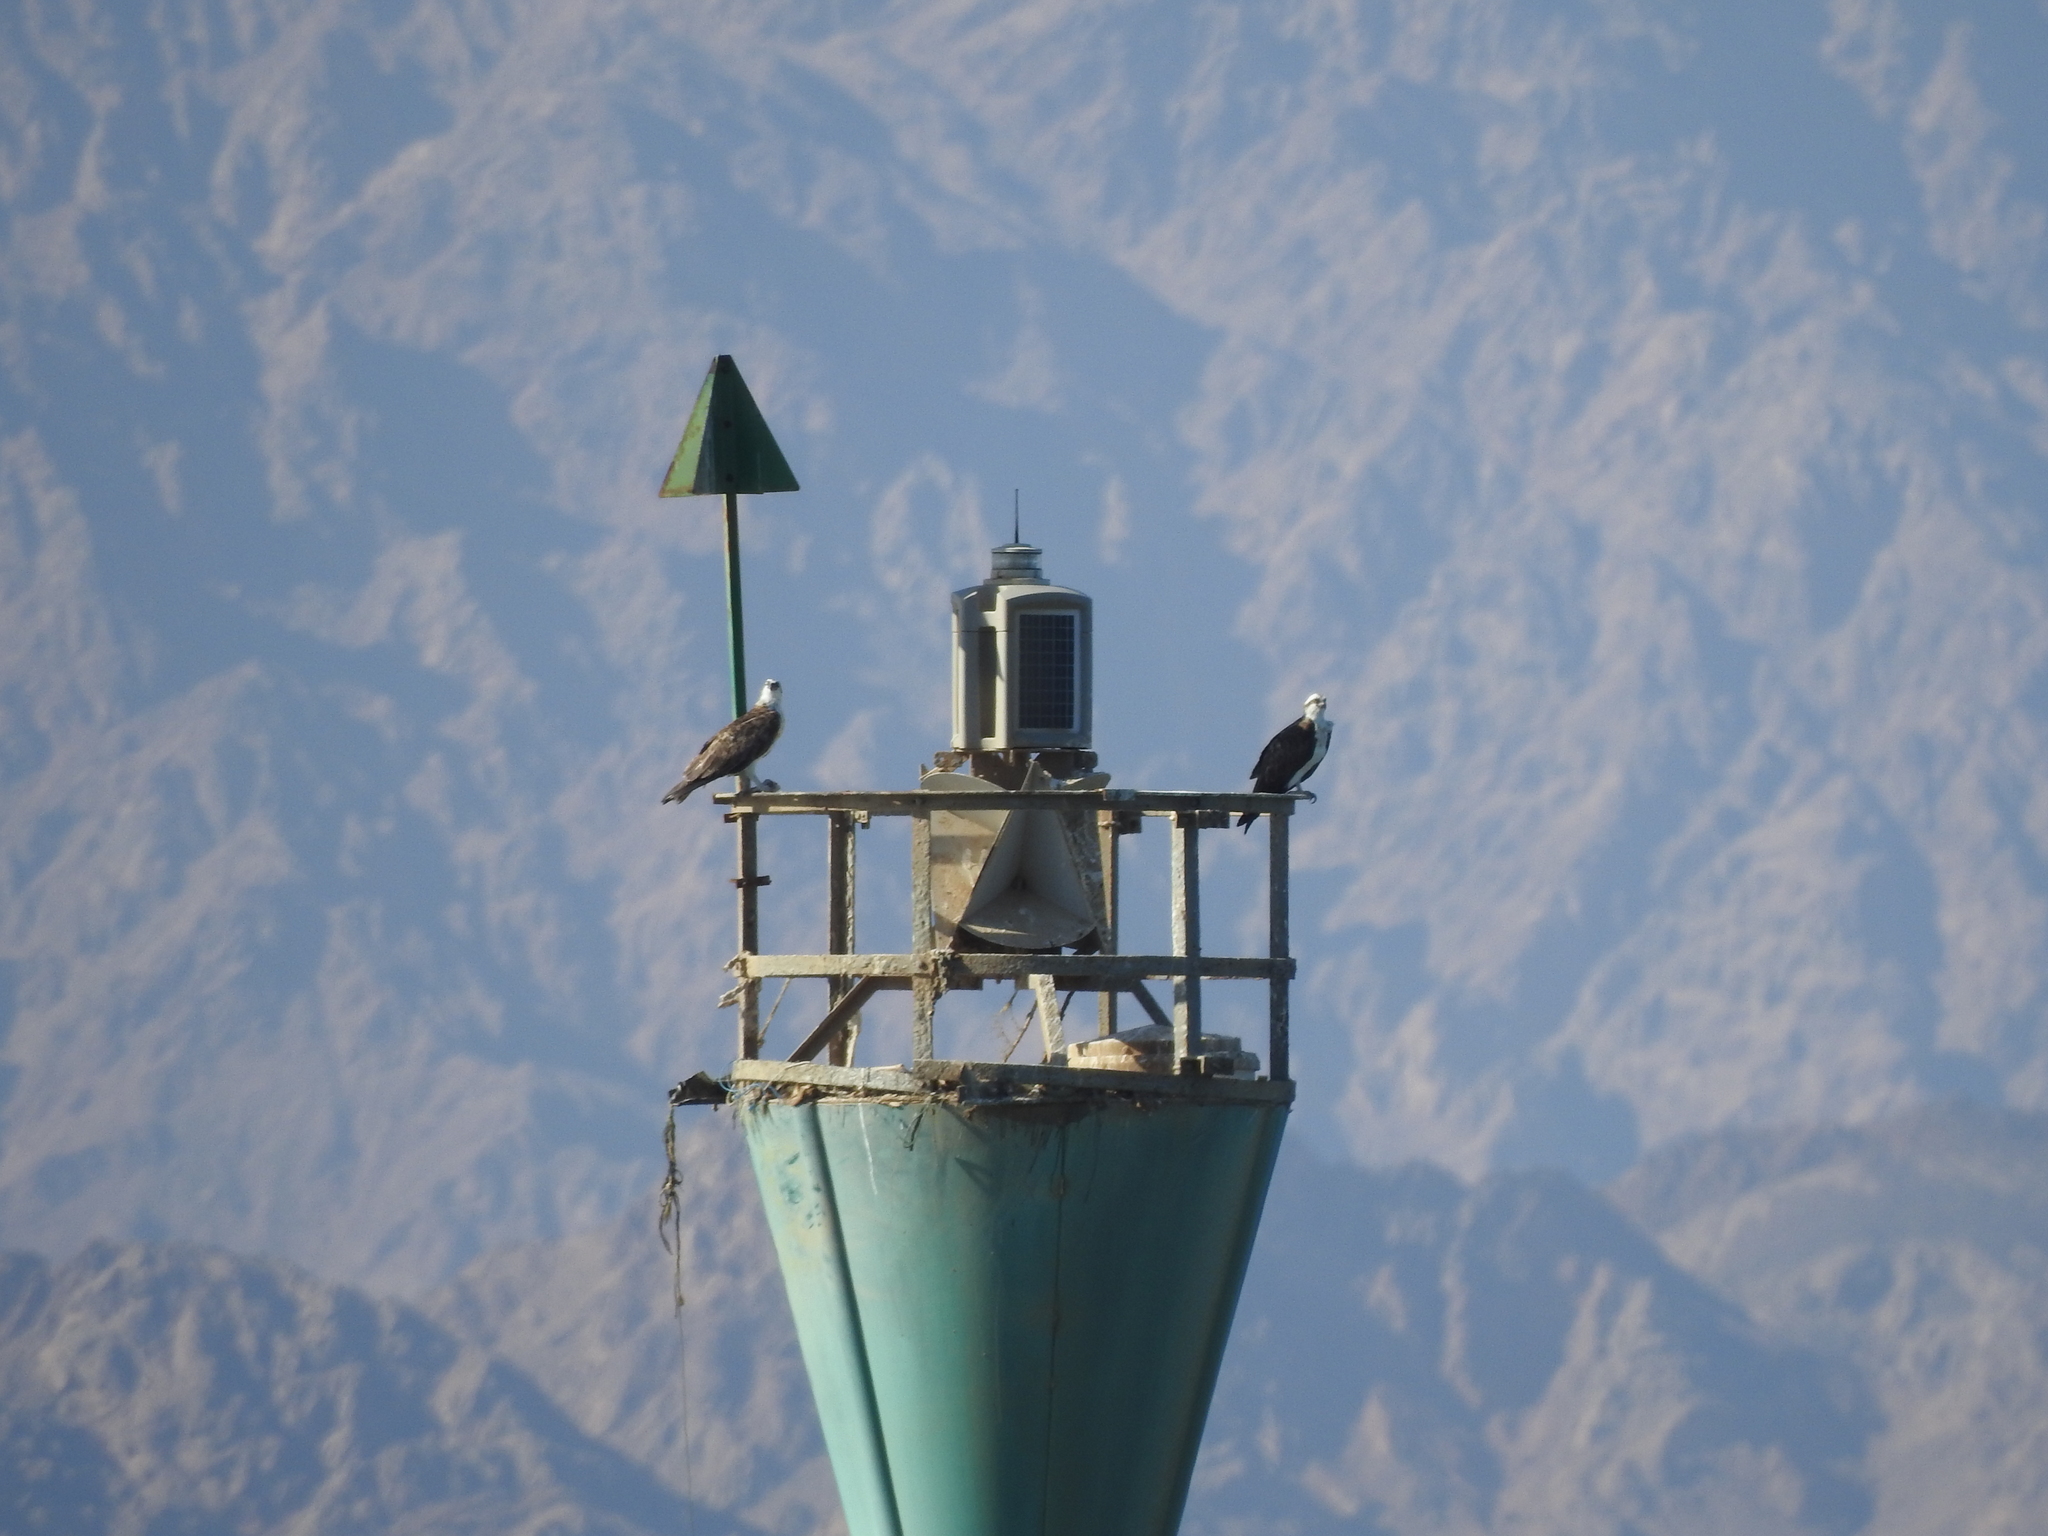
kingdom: Animalia
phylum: Chordata
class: Aves
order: Accipitriformes
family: Pandionidae
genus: Pandion
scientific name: Pandion haliaetus
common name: Osprey
